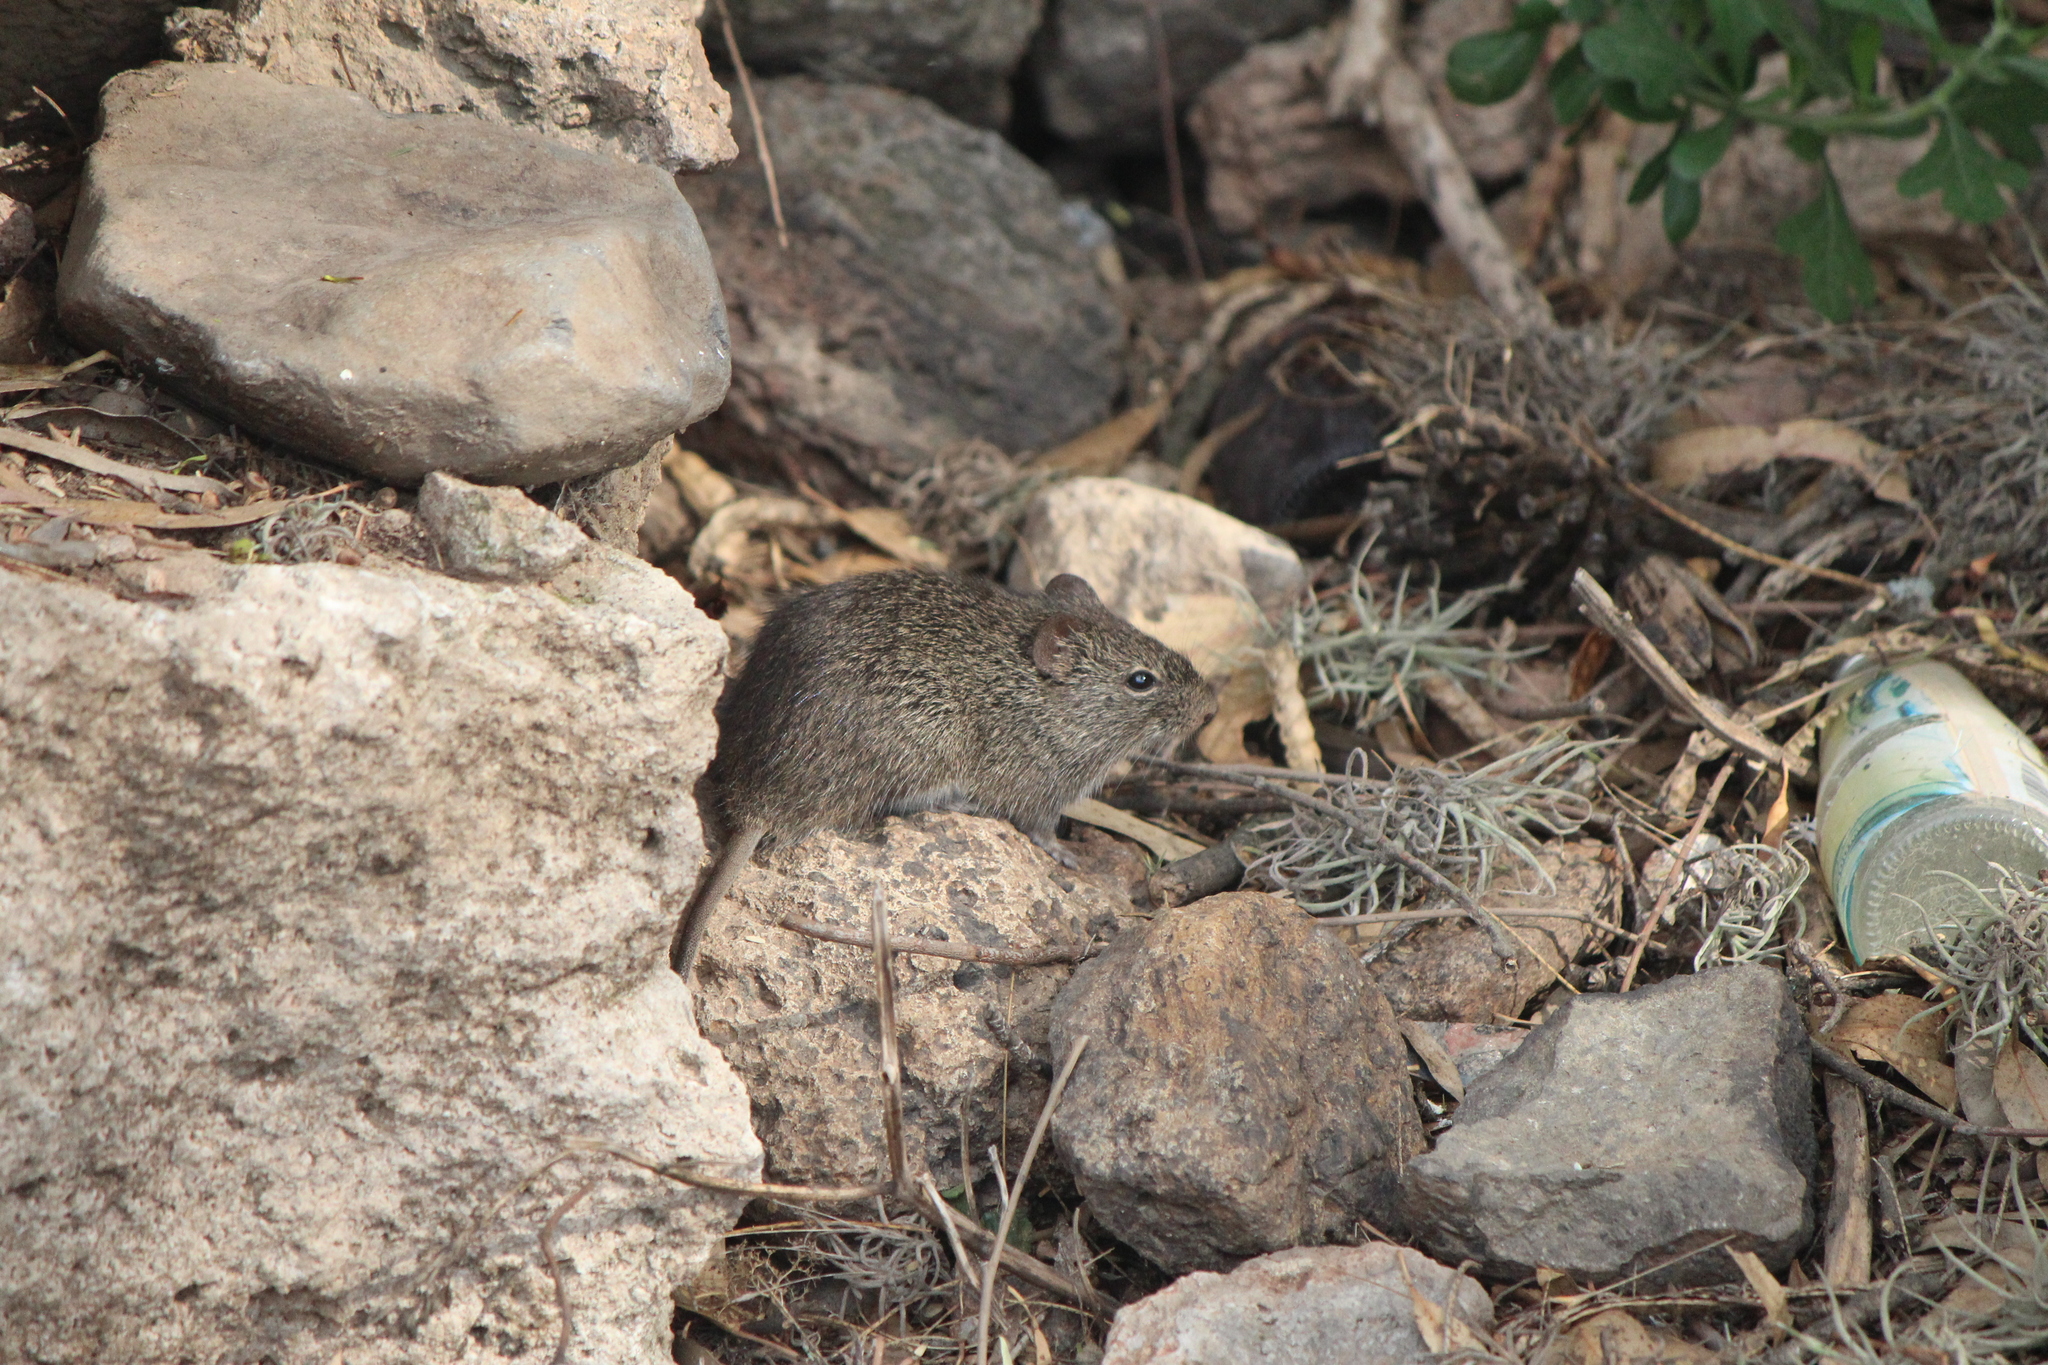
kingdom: Animalia
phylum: Chordata
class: Mammalia
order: Rodentia
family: Cricetidae
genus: Sigmodon
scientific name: Sigmodon leucotis
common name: White-eared cotton rat
